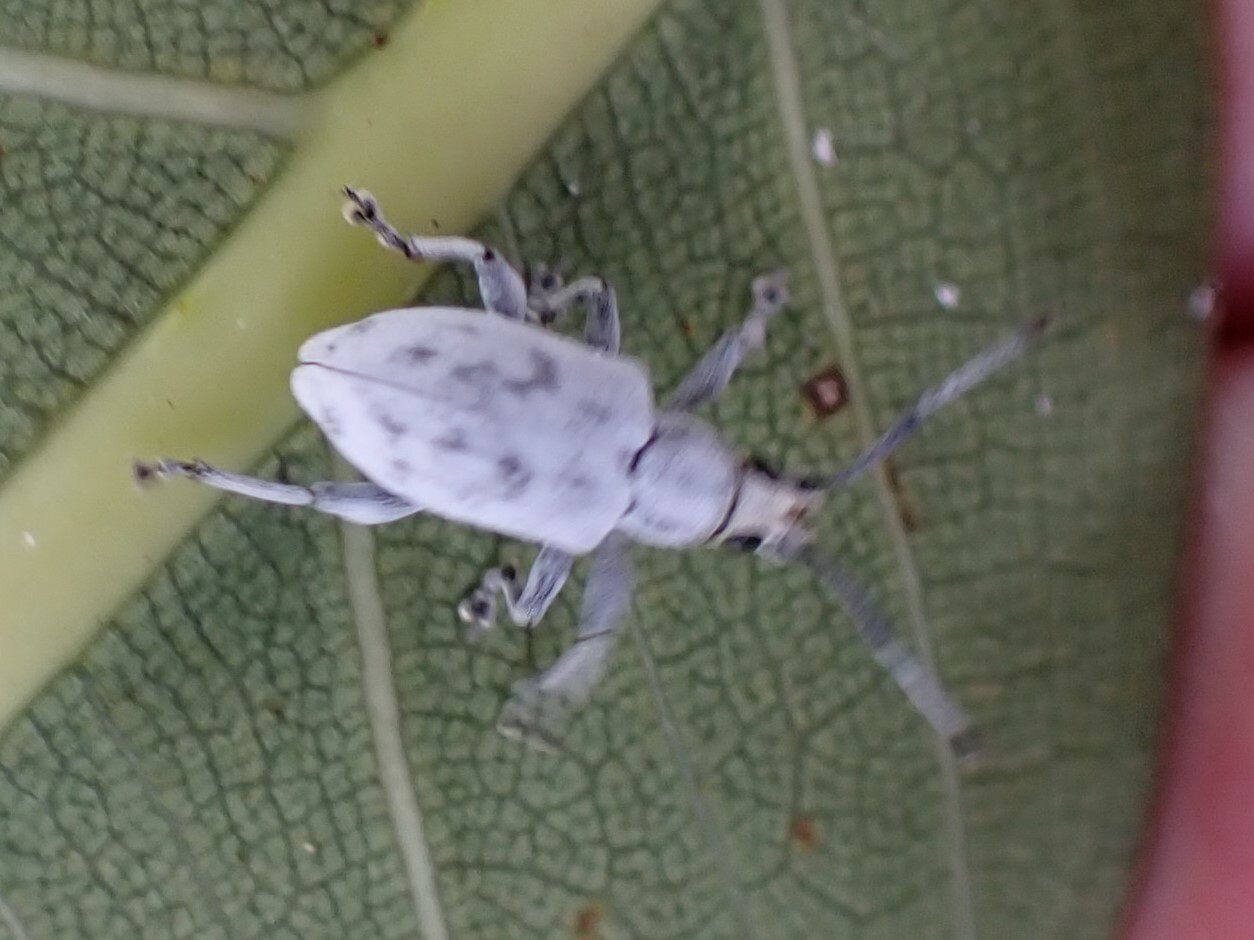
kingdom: Animalia
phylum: Arthropoda
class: Insecta
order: Coleoptera
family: Curculionidae
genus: Myllocerus
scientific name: Myllocerus undecimpustulatus
